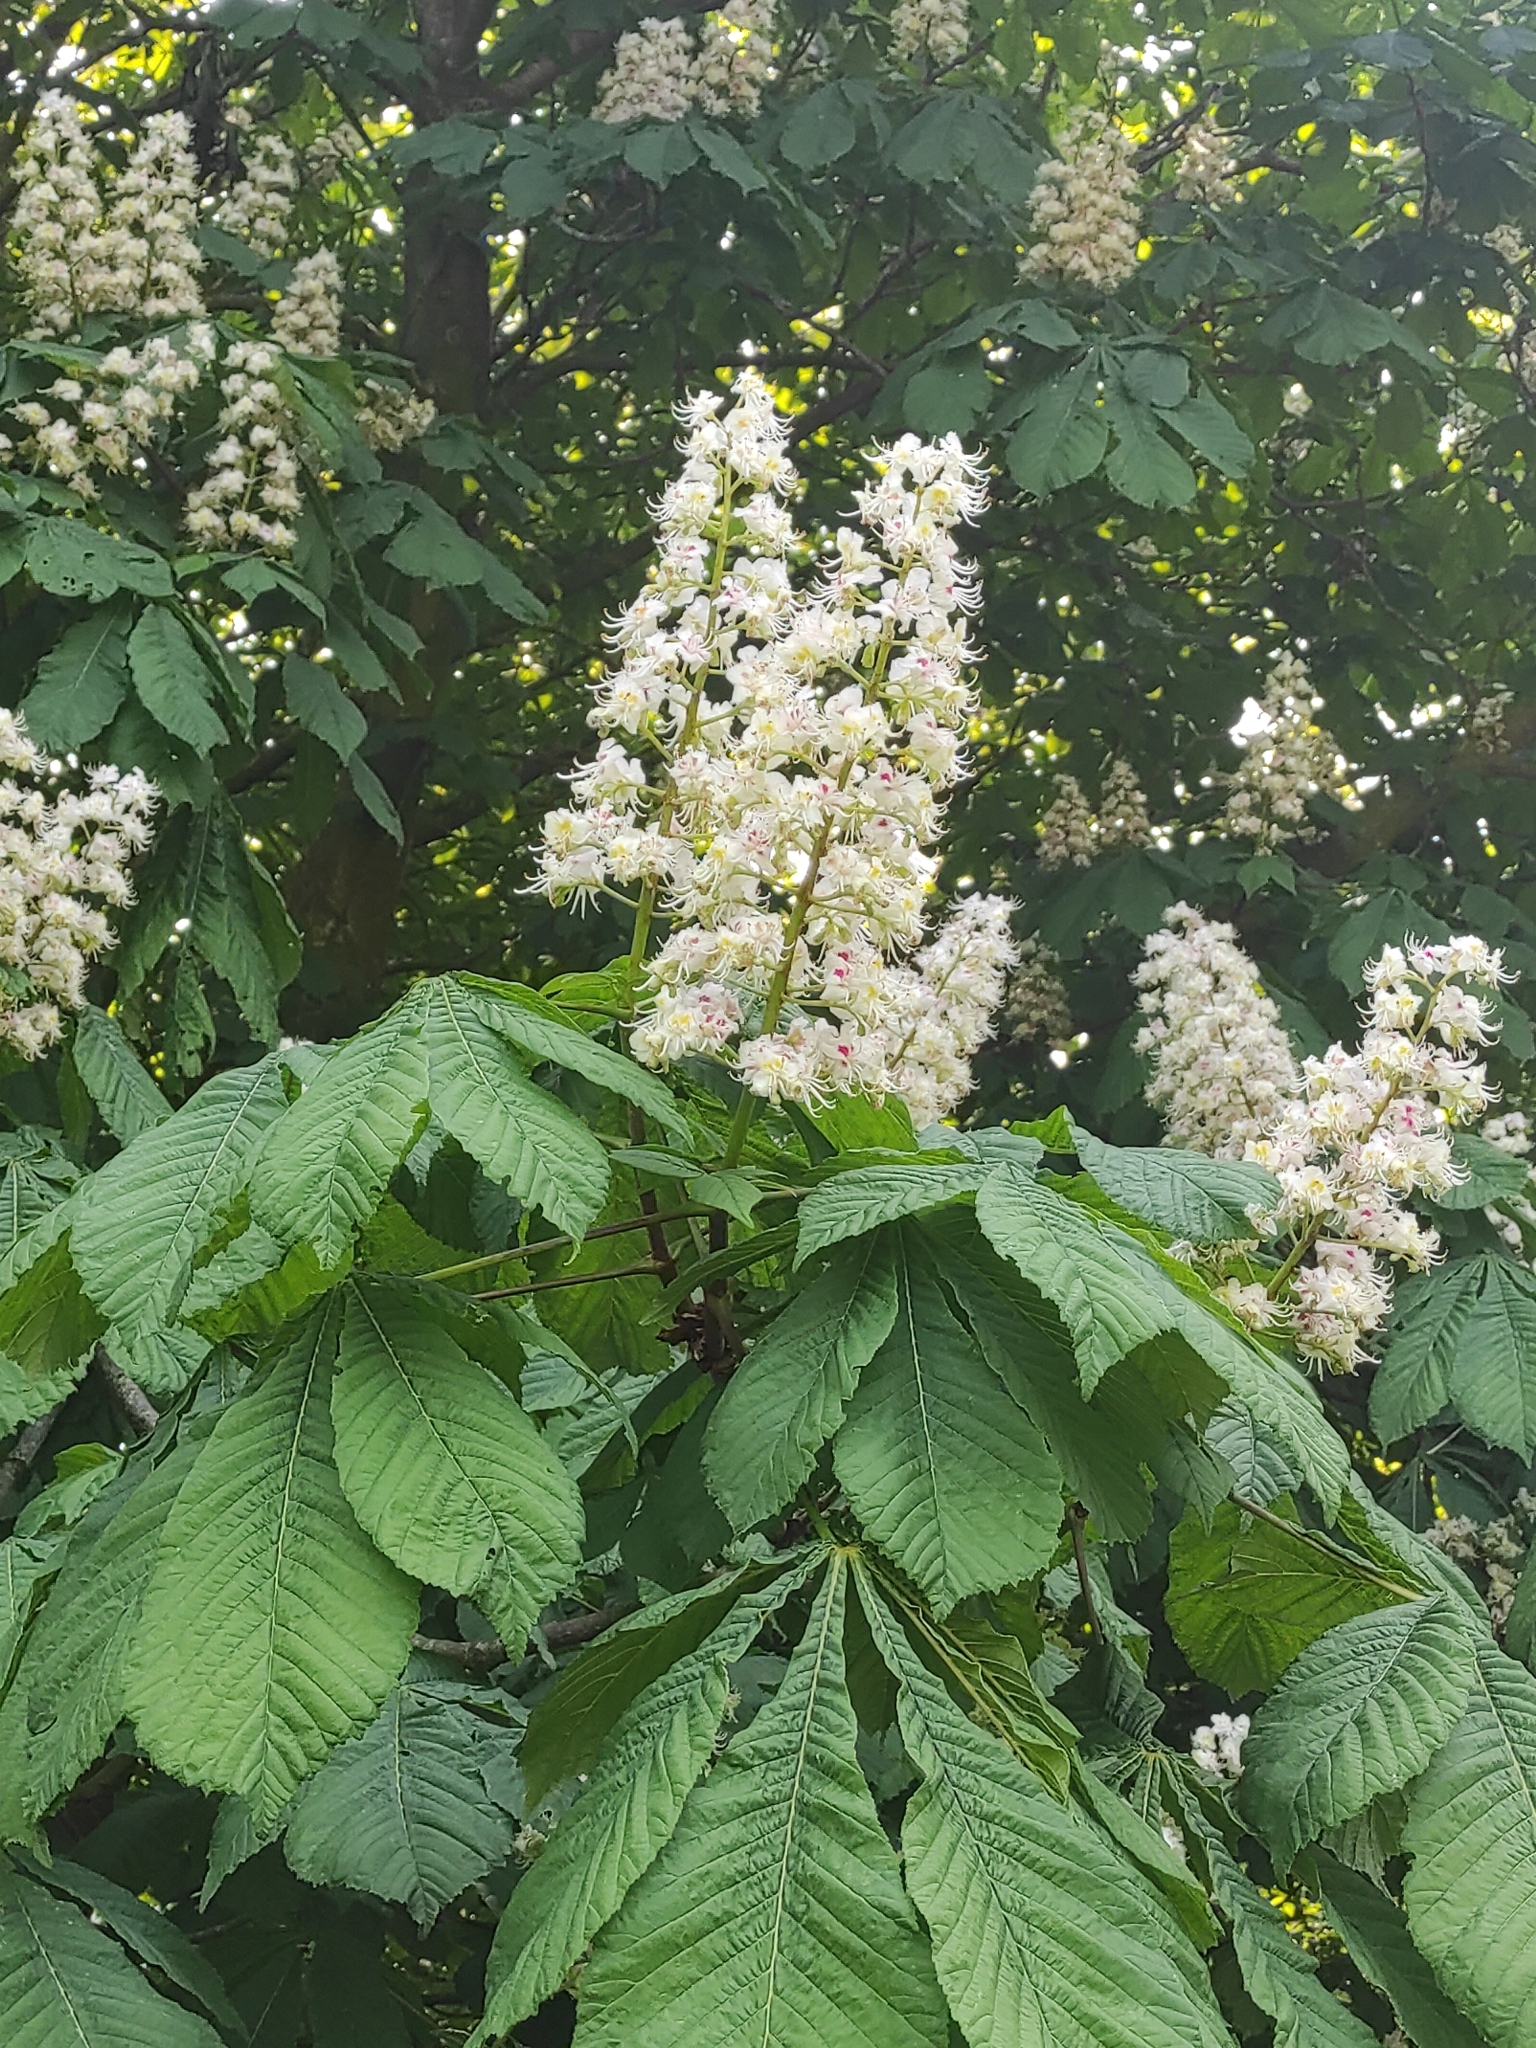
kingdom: Plantae
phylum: Tracheophyta
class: Magnoliopsida
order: Sapindales
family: Sapindaceae
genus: Aesculus
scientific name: Aesculus hippocastanum
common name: Horse-chestnut
